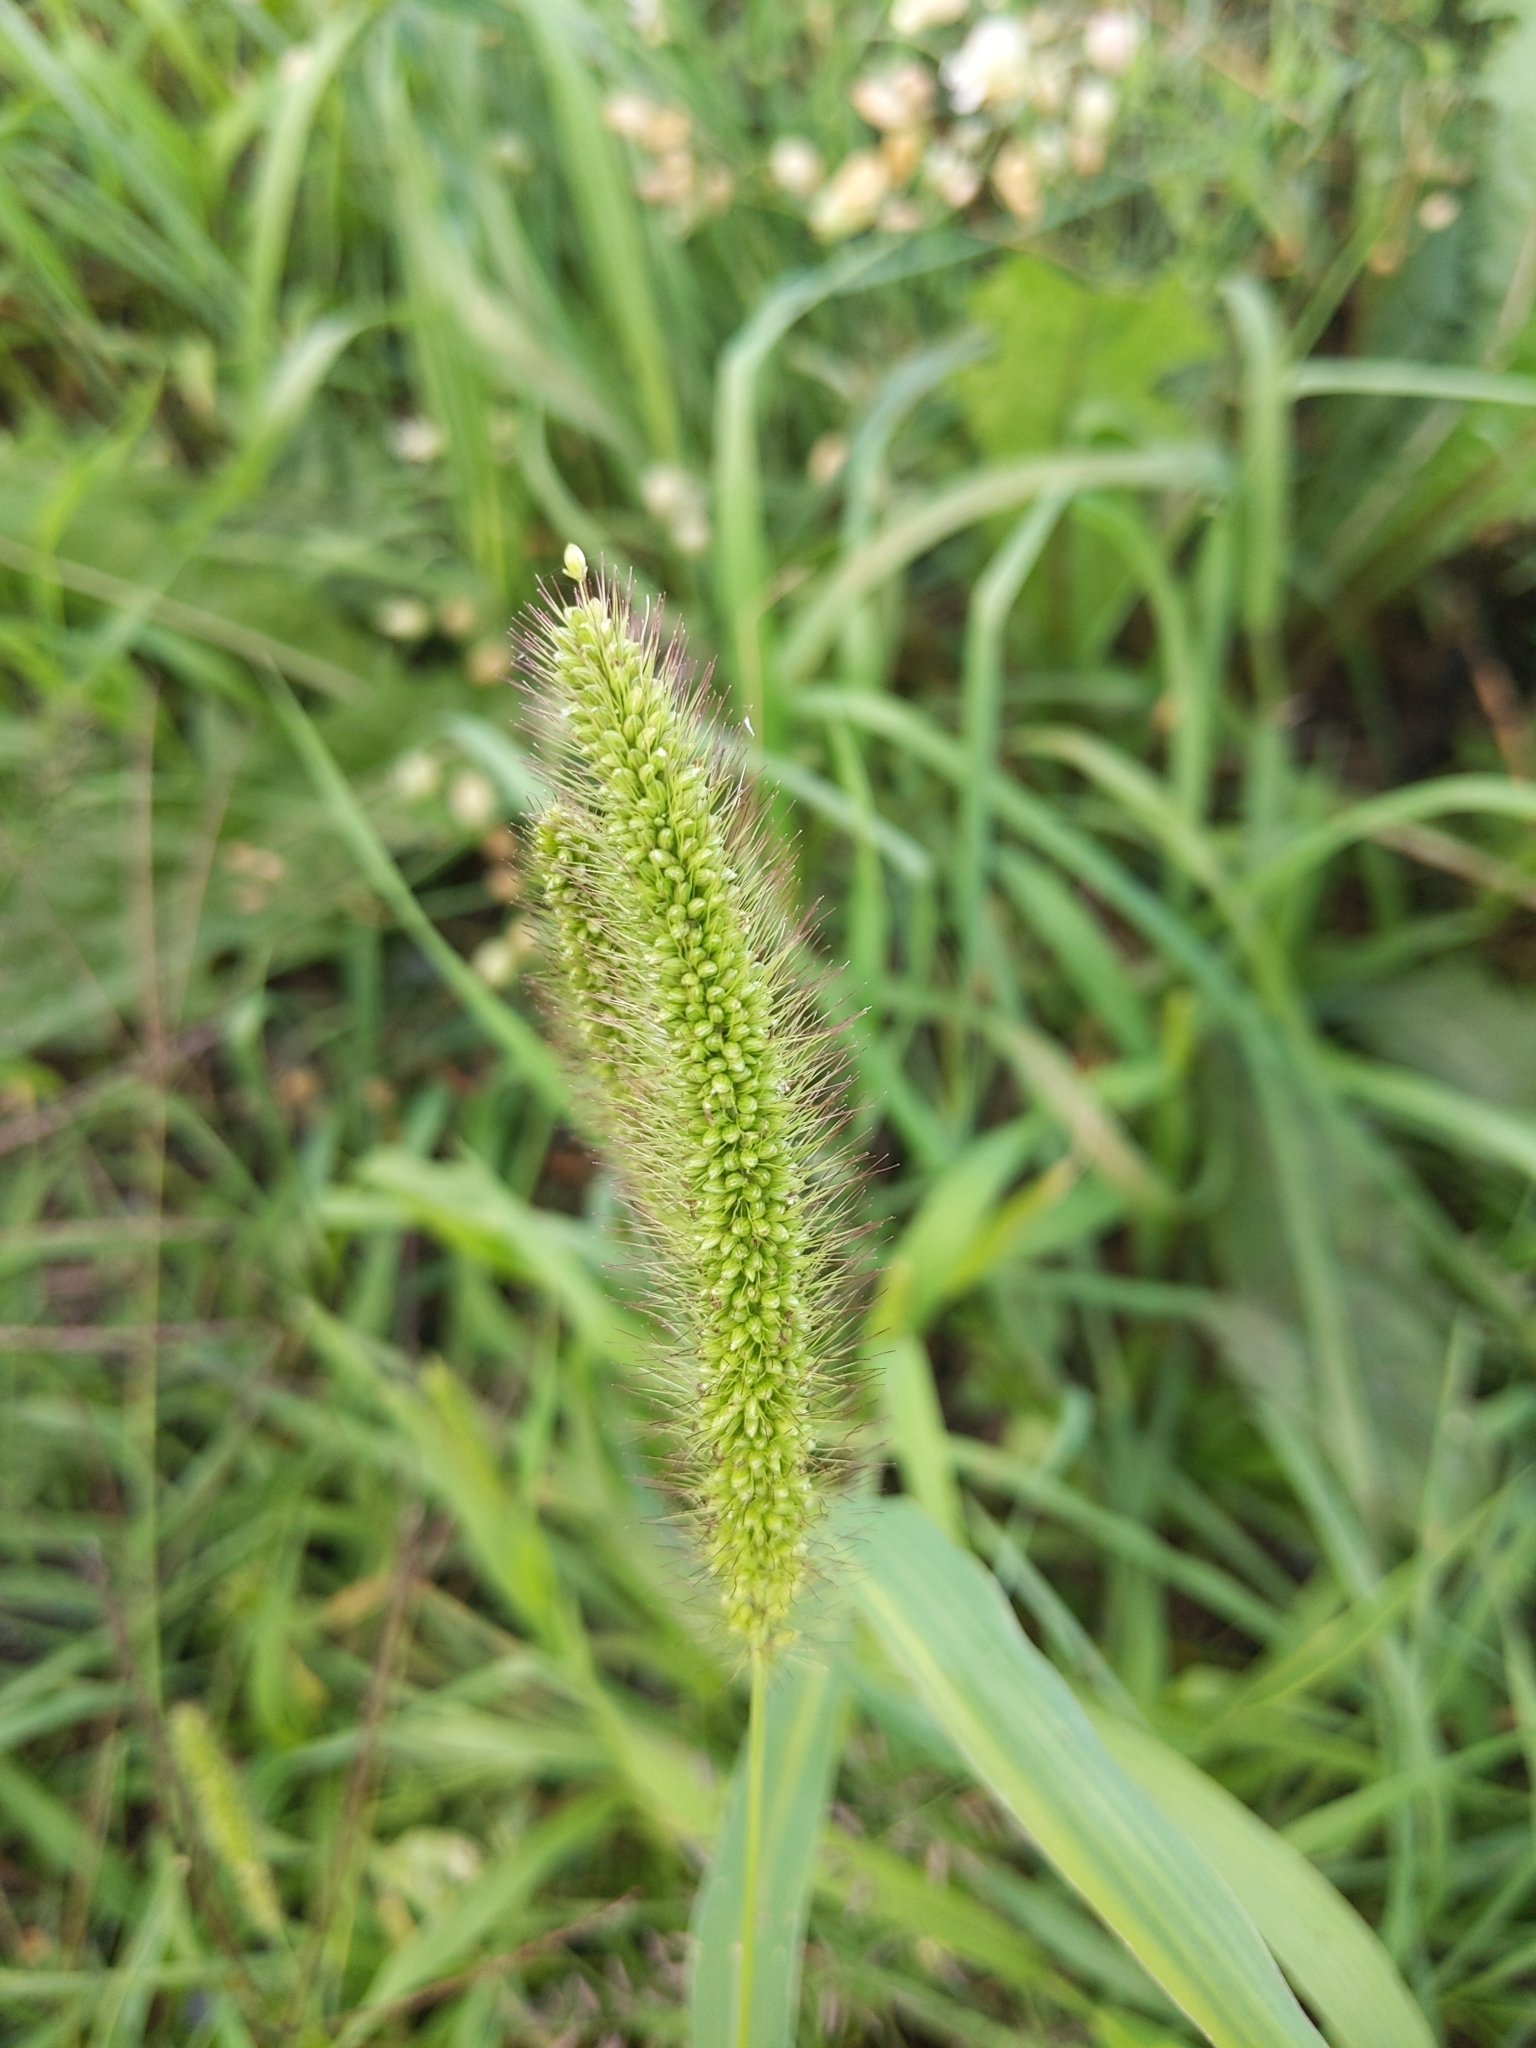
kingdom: Plantae
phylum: Tracheophyta
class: Liliopsida
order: Poales
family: Poaceae
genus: Setaria
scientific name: Setaria viridis
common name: Green bristlegrass
